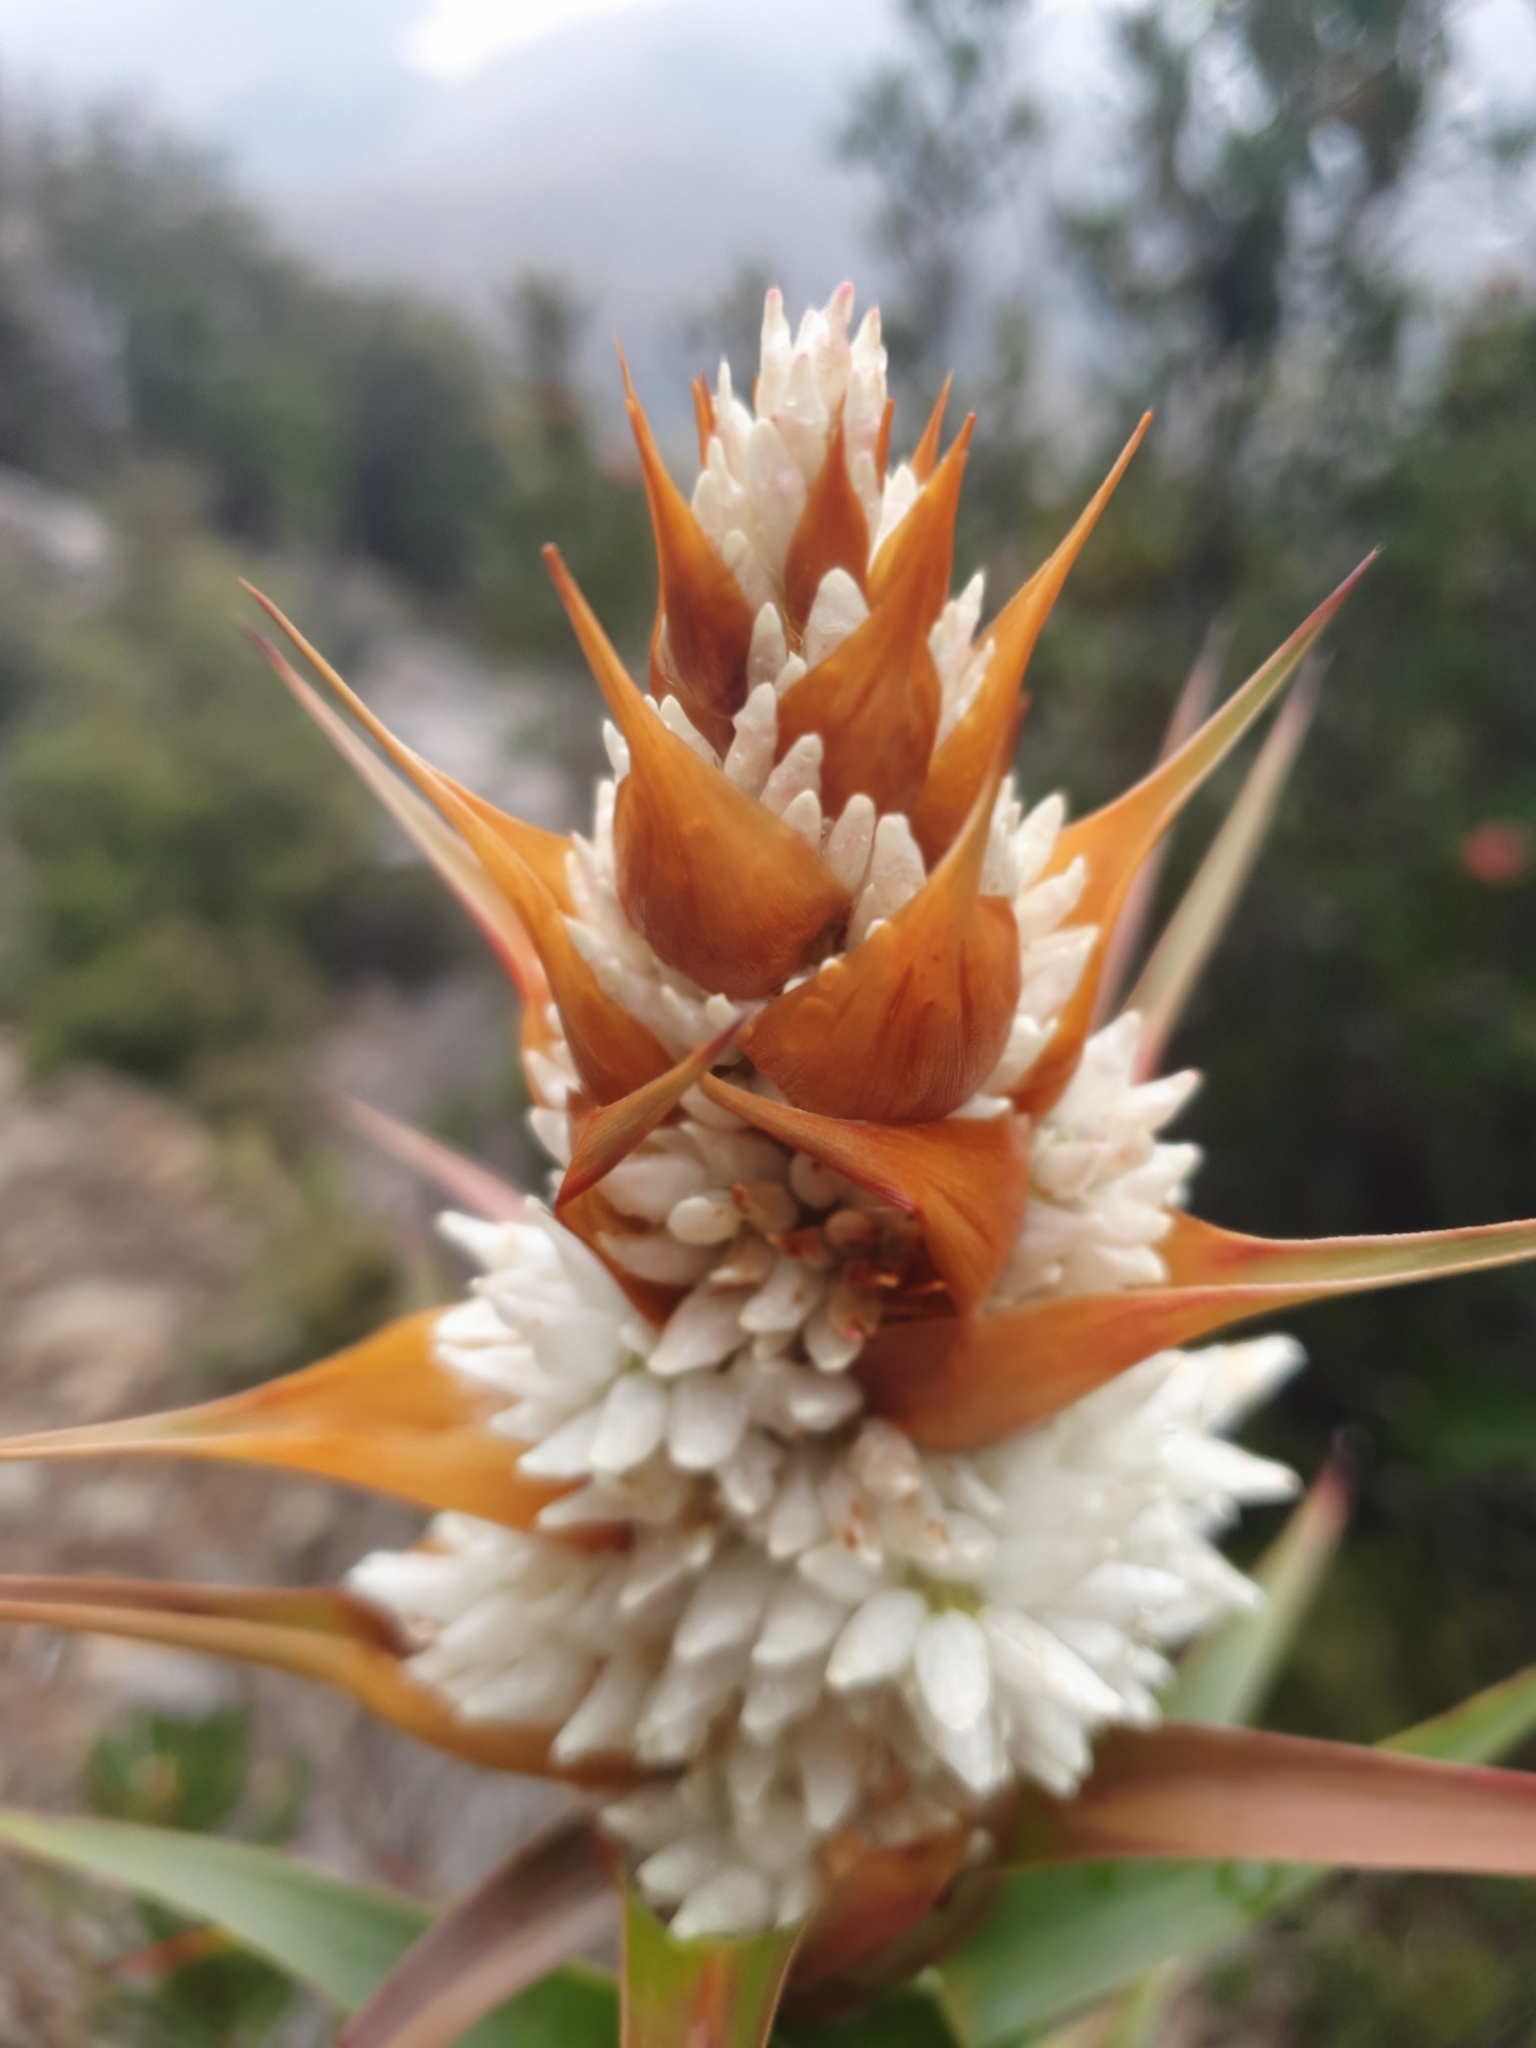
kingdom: Plantae
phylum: Tracheophyta
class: Magnoliopsida
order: Ericales
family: Ericaceae
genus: Dracophyllum
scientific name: Dracophyllum desgrazii
